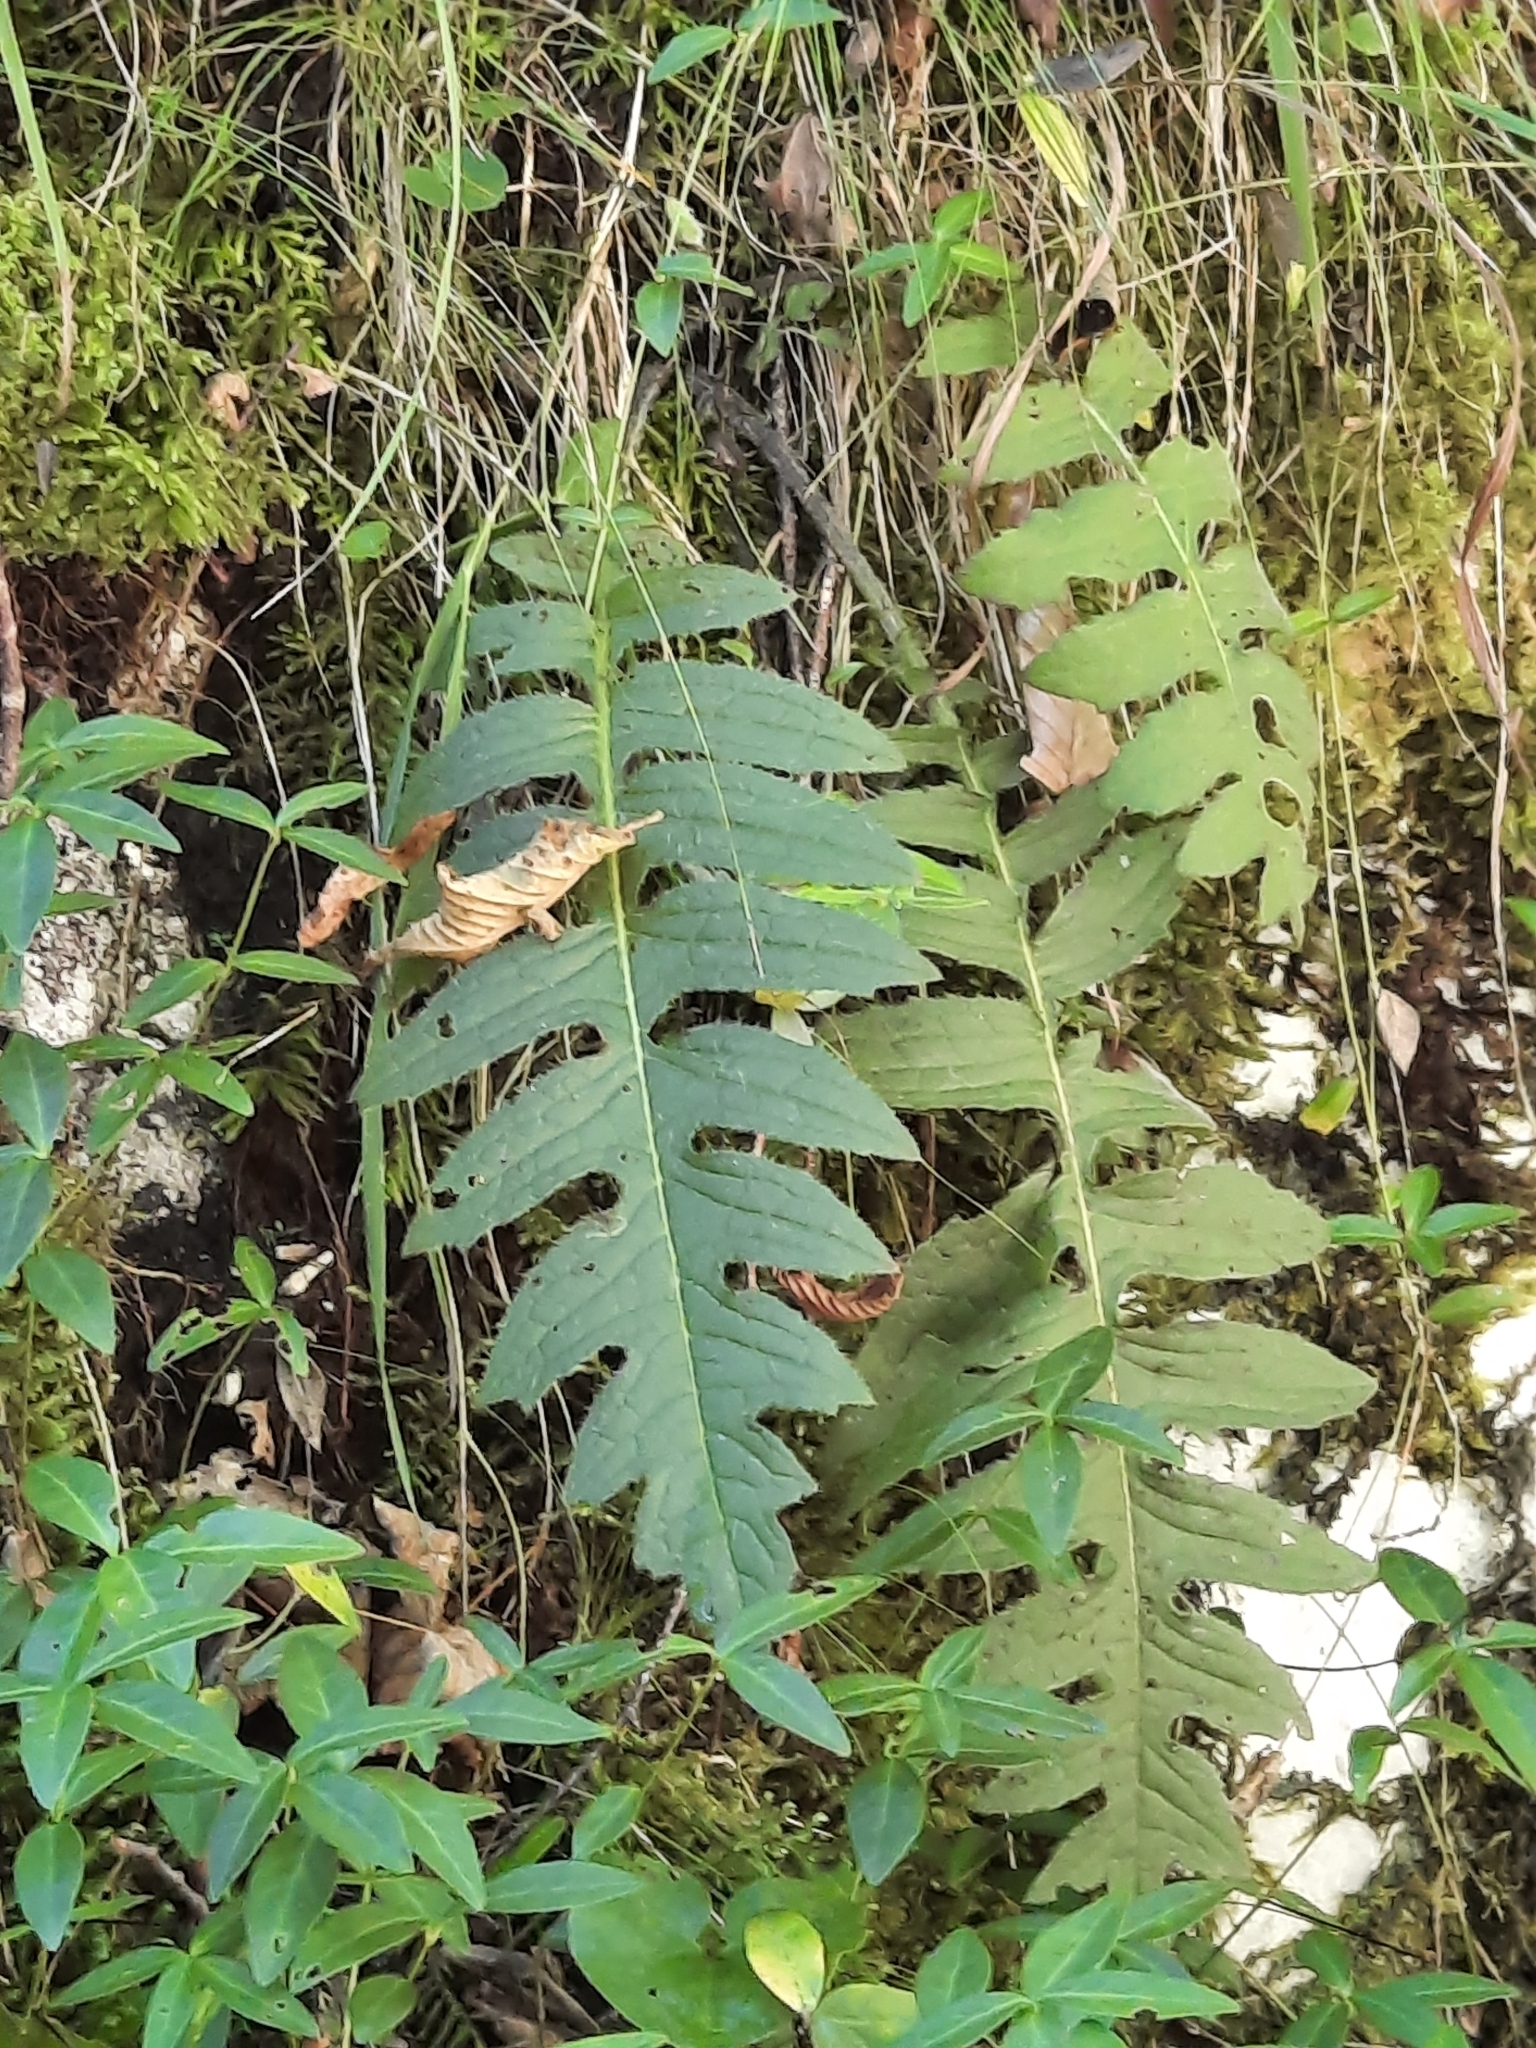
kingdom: Plantae
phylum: Tracheophyta
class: Magnoliopsida
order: Asterales
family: Asteraceae
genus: Cirsium
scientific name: Cirsium erisithales
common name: Yellow thistle
